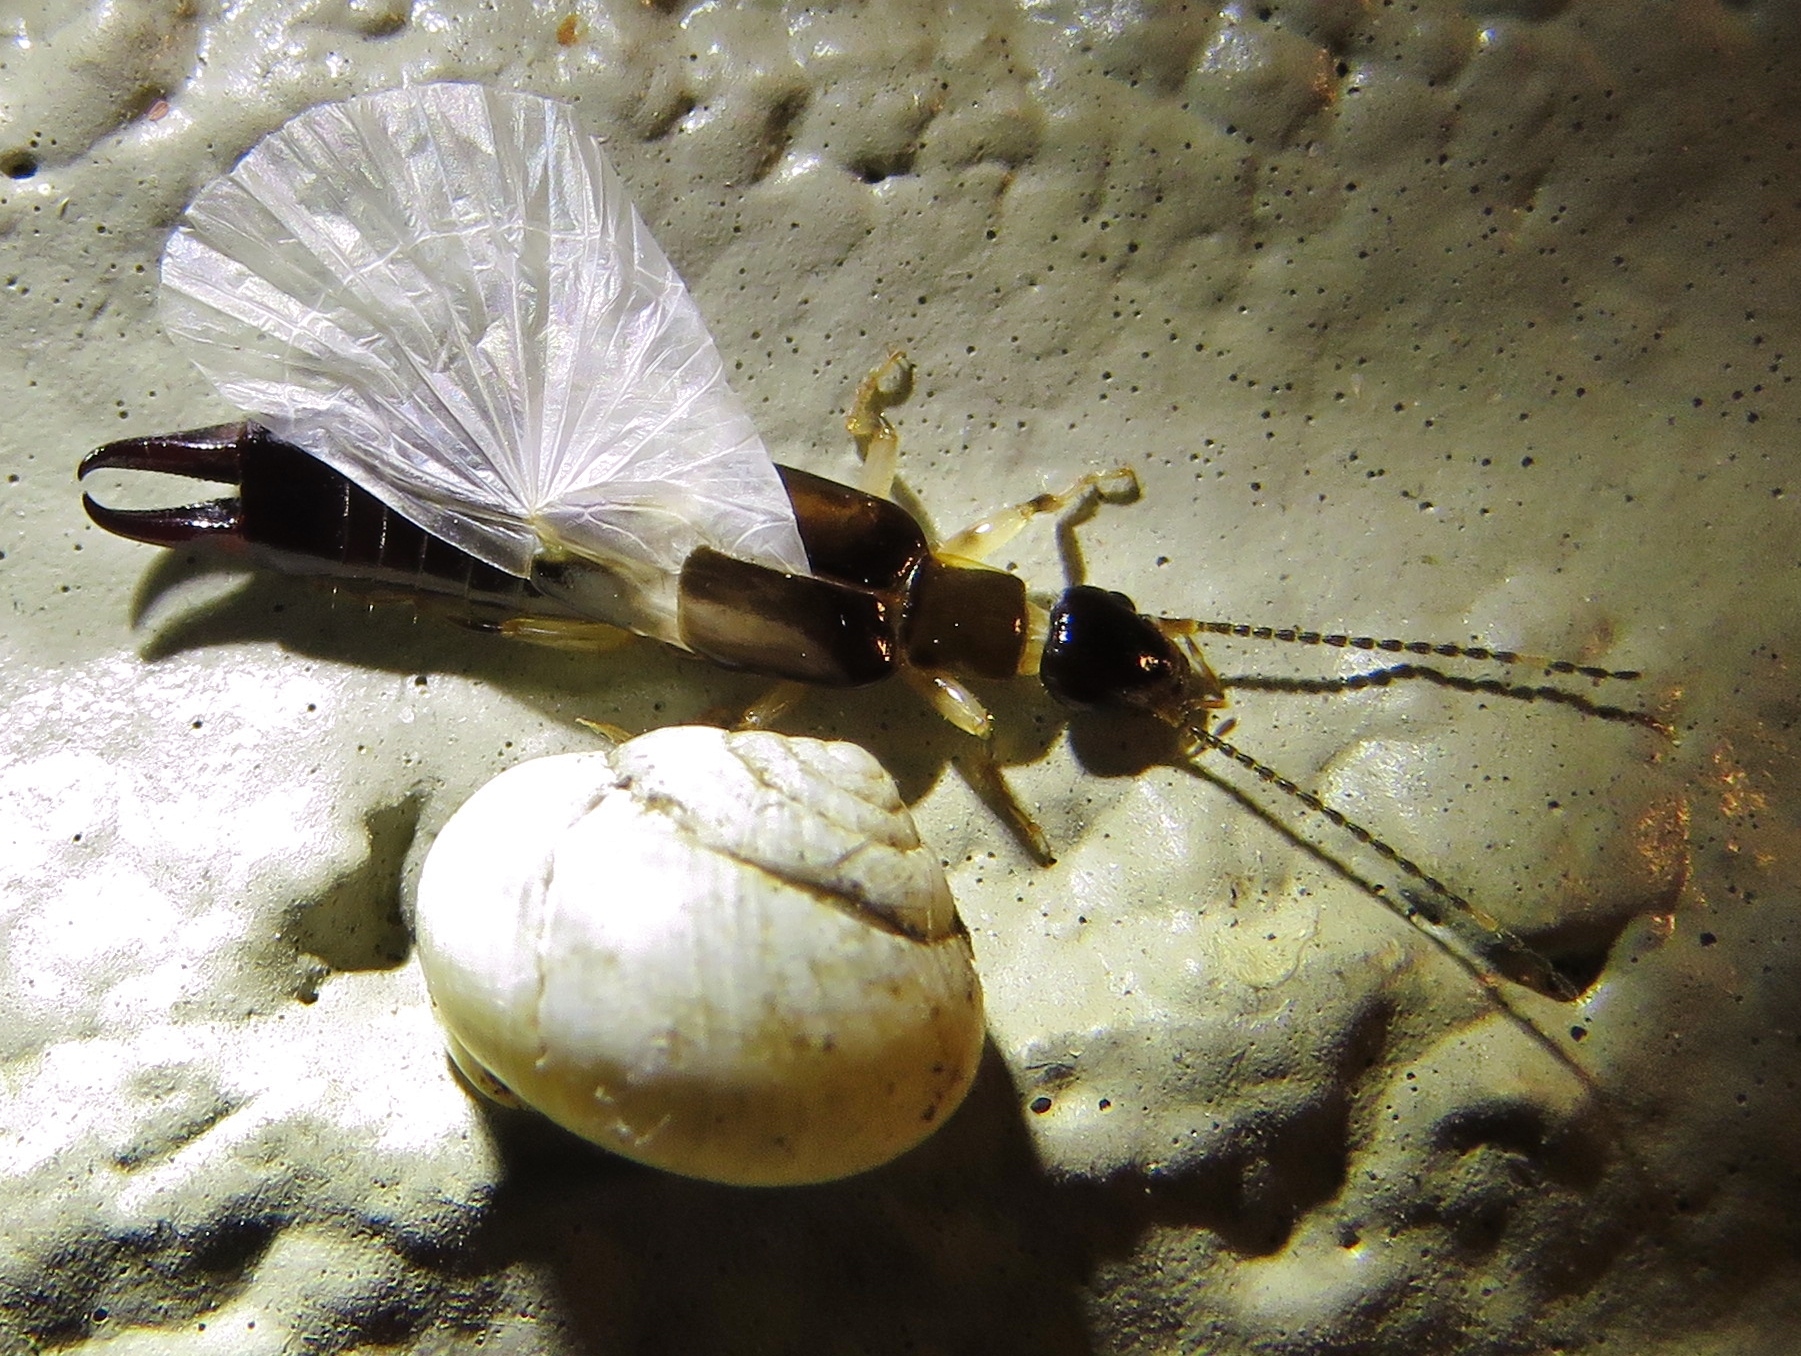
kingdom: Animalia
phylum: Arthropoda
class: Insecta
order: Dermaptera
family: Anisolabididae
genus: Euborellia
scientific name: Euborellia cincticollis
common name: African earwig
